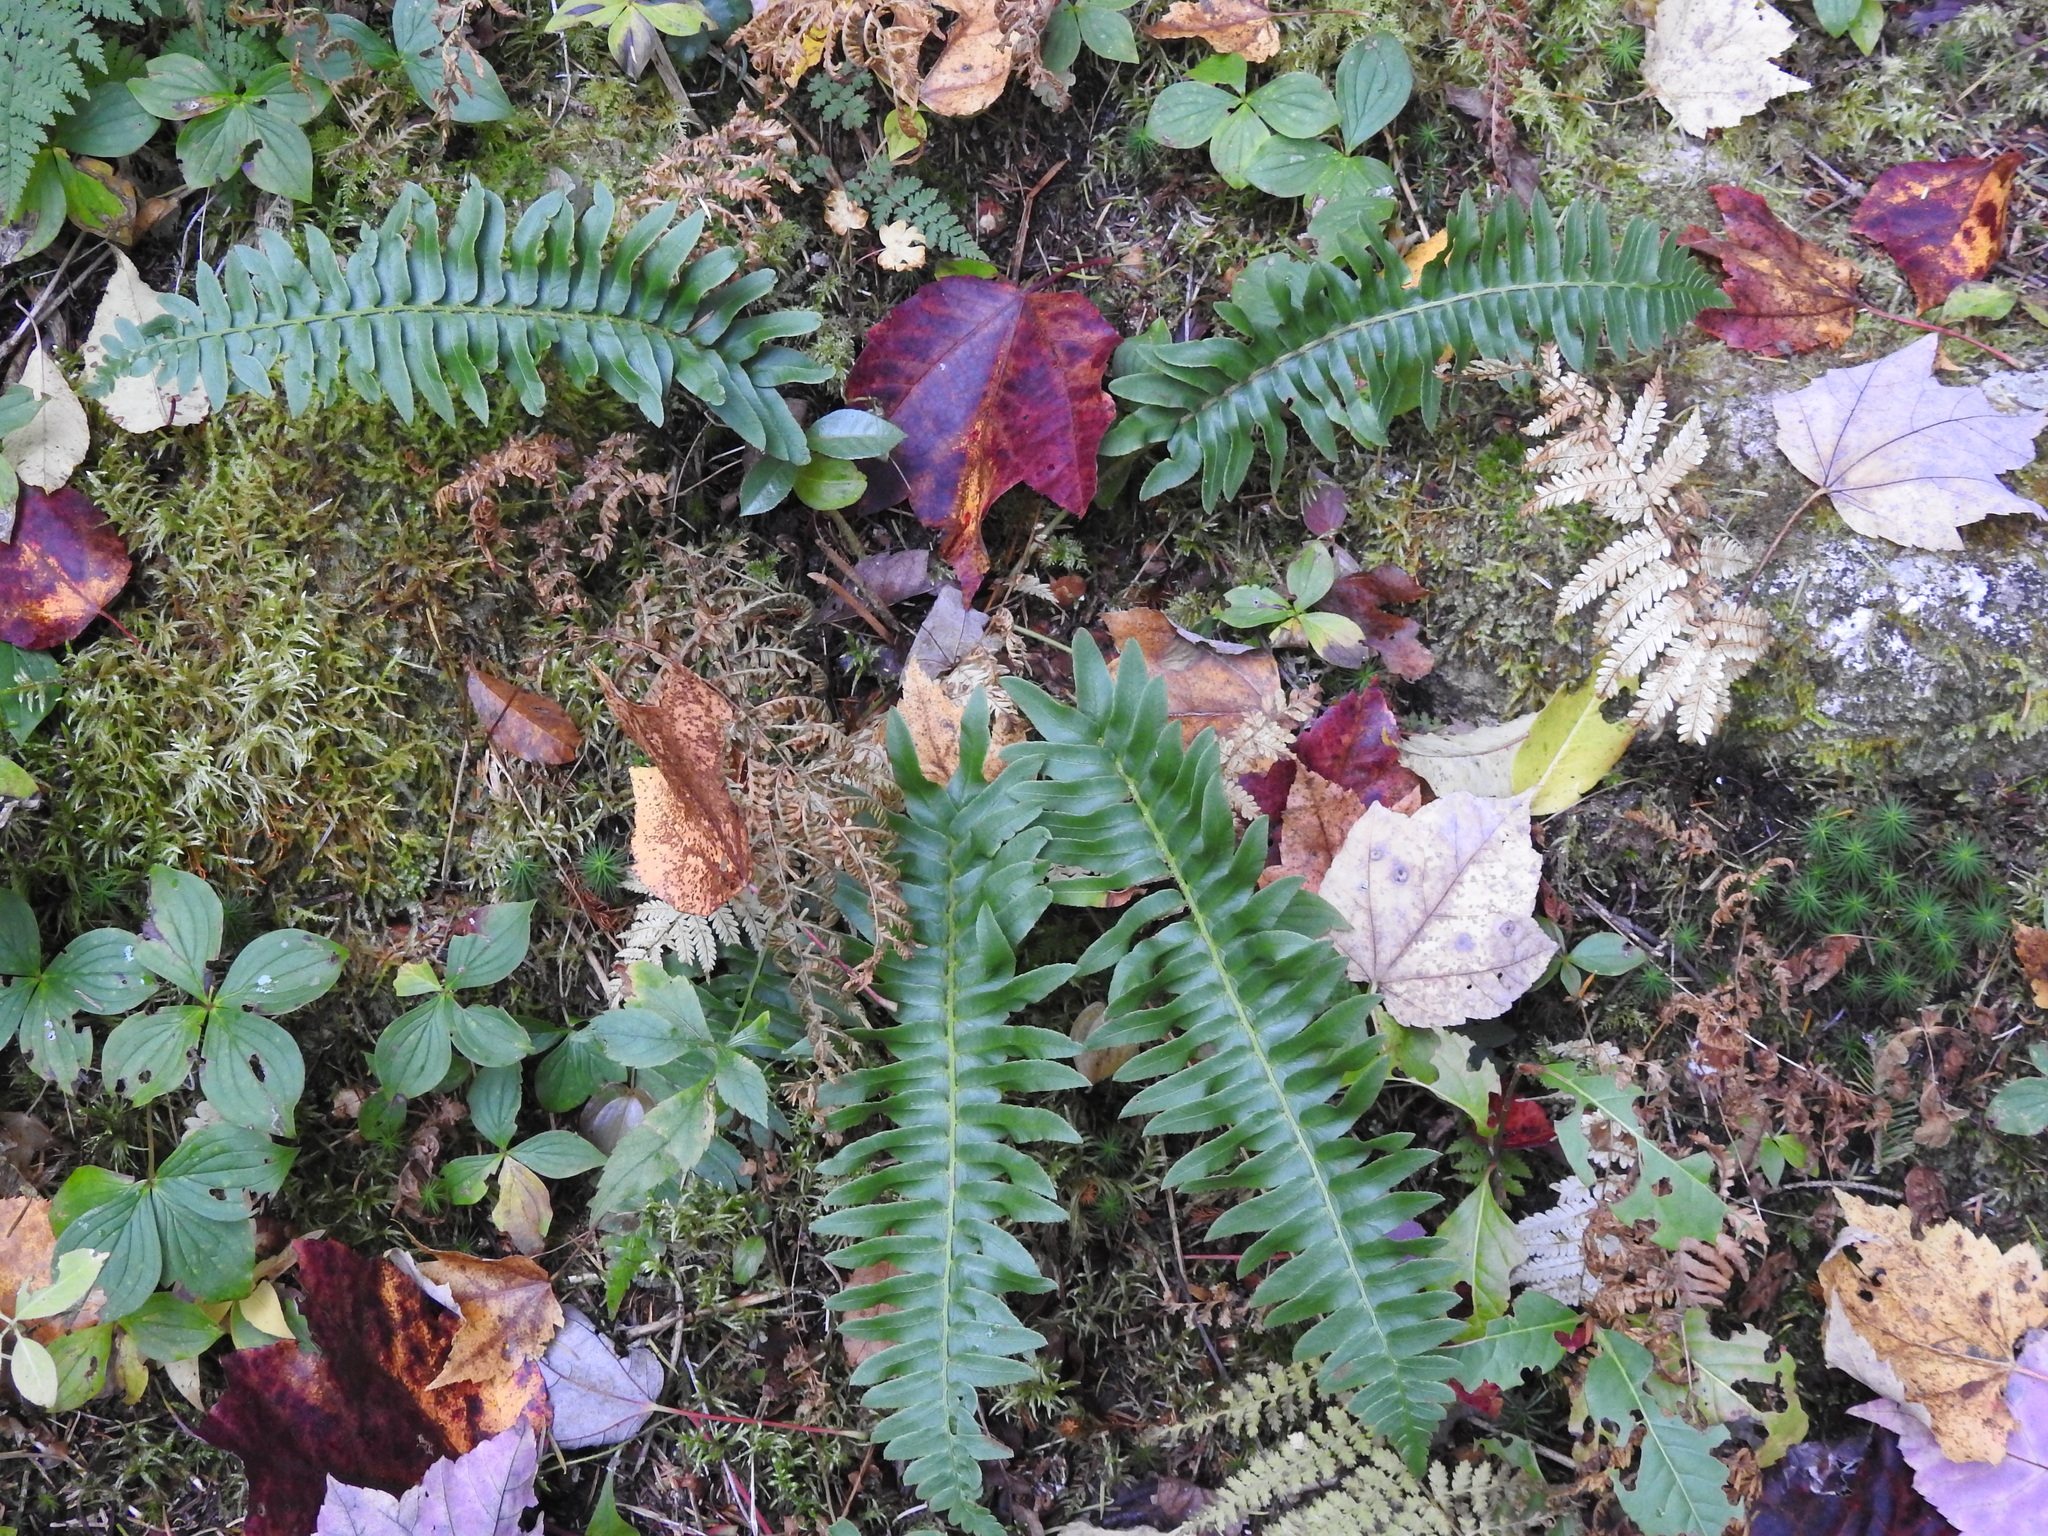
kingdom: Plantae
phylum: Tracheophyta
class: Polypodiopsida
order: Polypodiales
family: Dryopteridaceae
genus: Polystichum
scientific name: Polystichum acrostichoides
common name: Christmas fern
